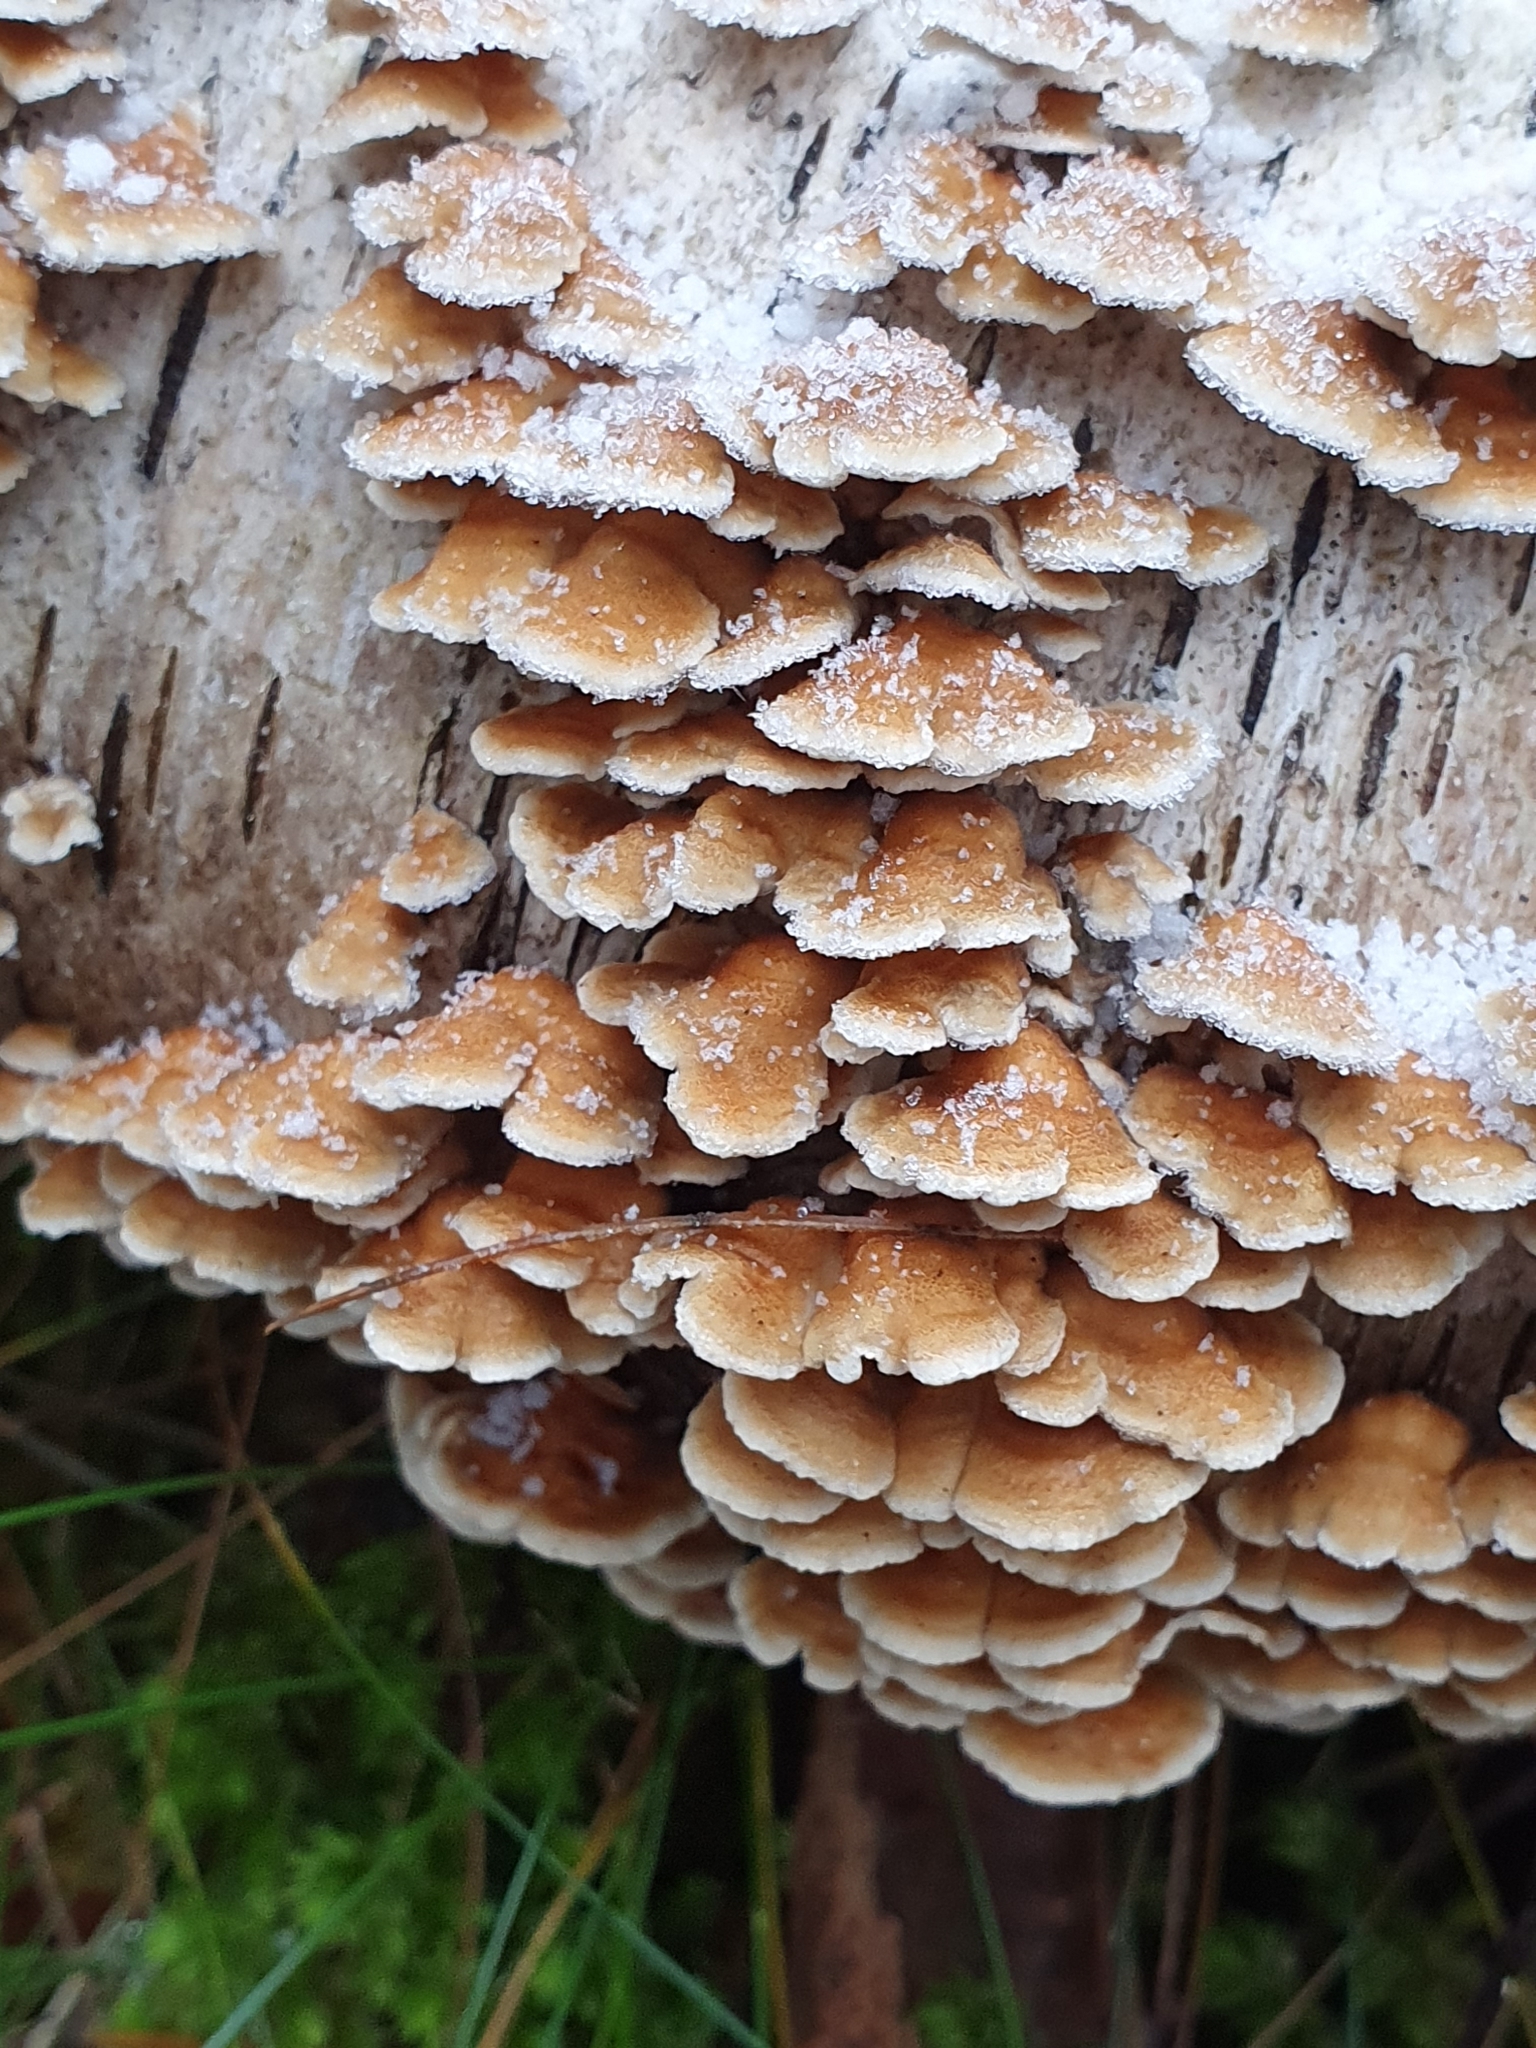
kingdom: Fungi
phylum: Basidiomycota
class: Agaricomycetes
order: Amylocorticiales
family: Amylocorticiaceae
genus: Plicaturopsis
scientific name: Plicaturopsis crispa
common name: Crimped gill
